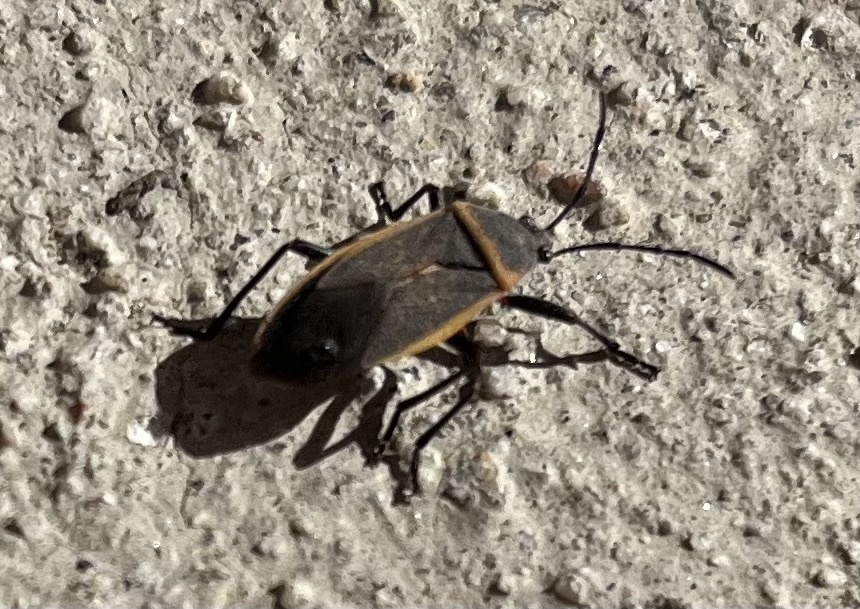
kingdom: Animalia
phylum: Arthropoda
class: Insecta
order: Hemiptera
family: Largidae
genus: Largus
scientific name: Largus californicus
